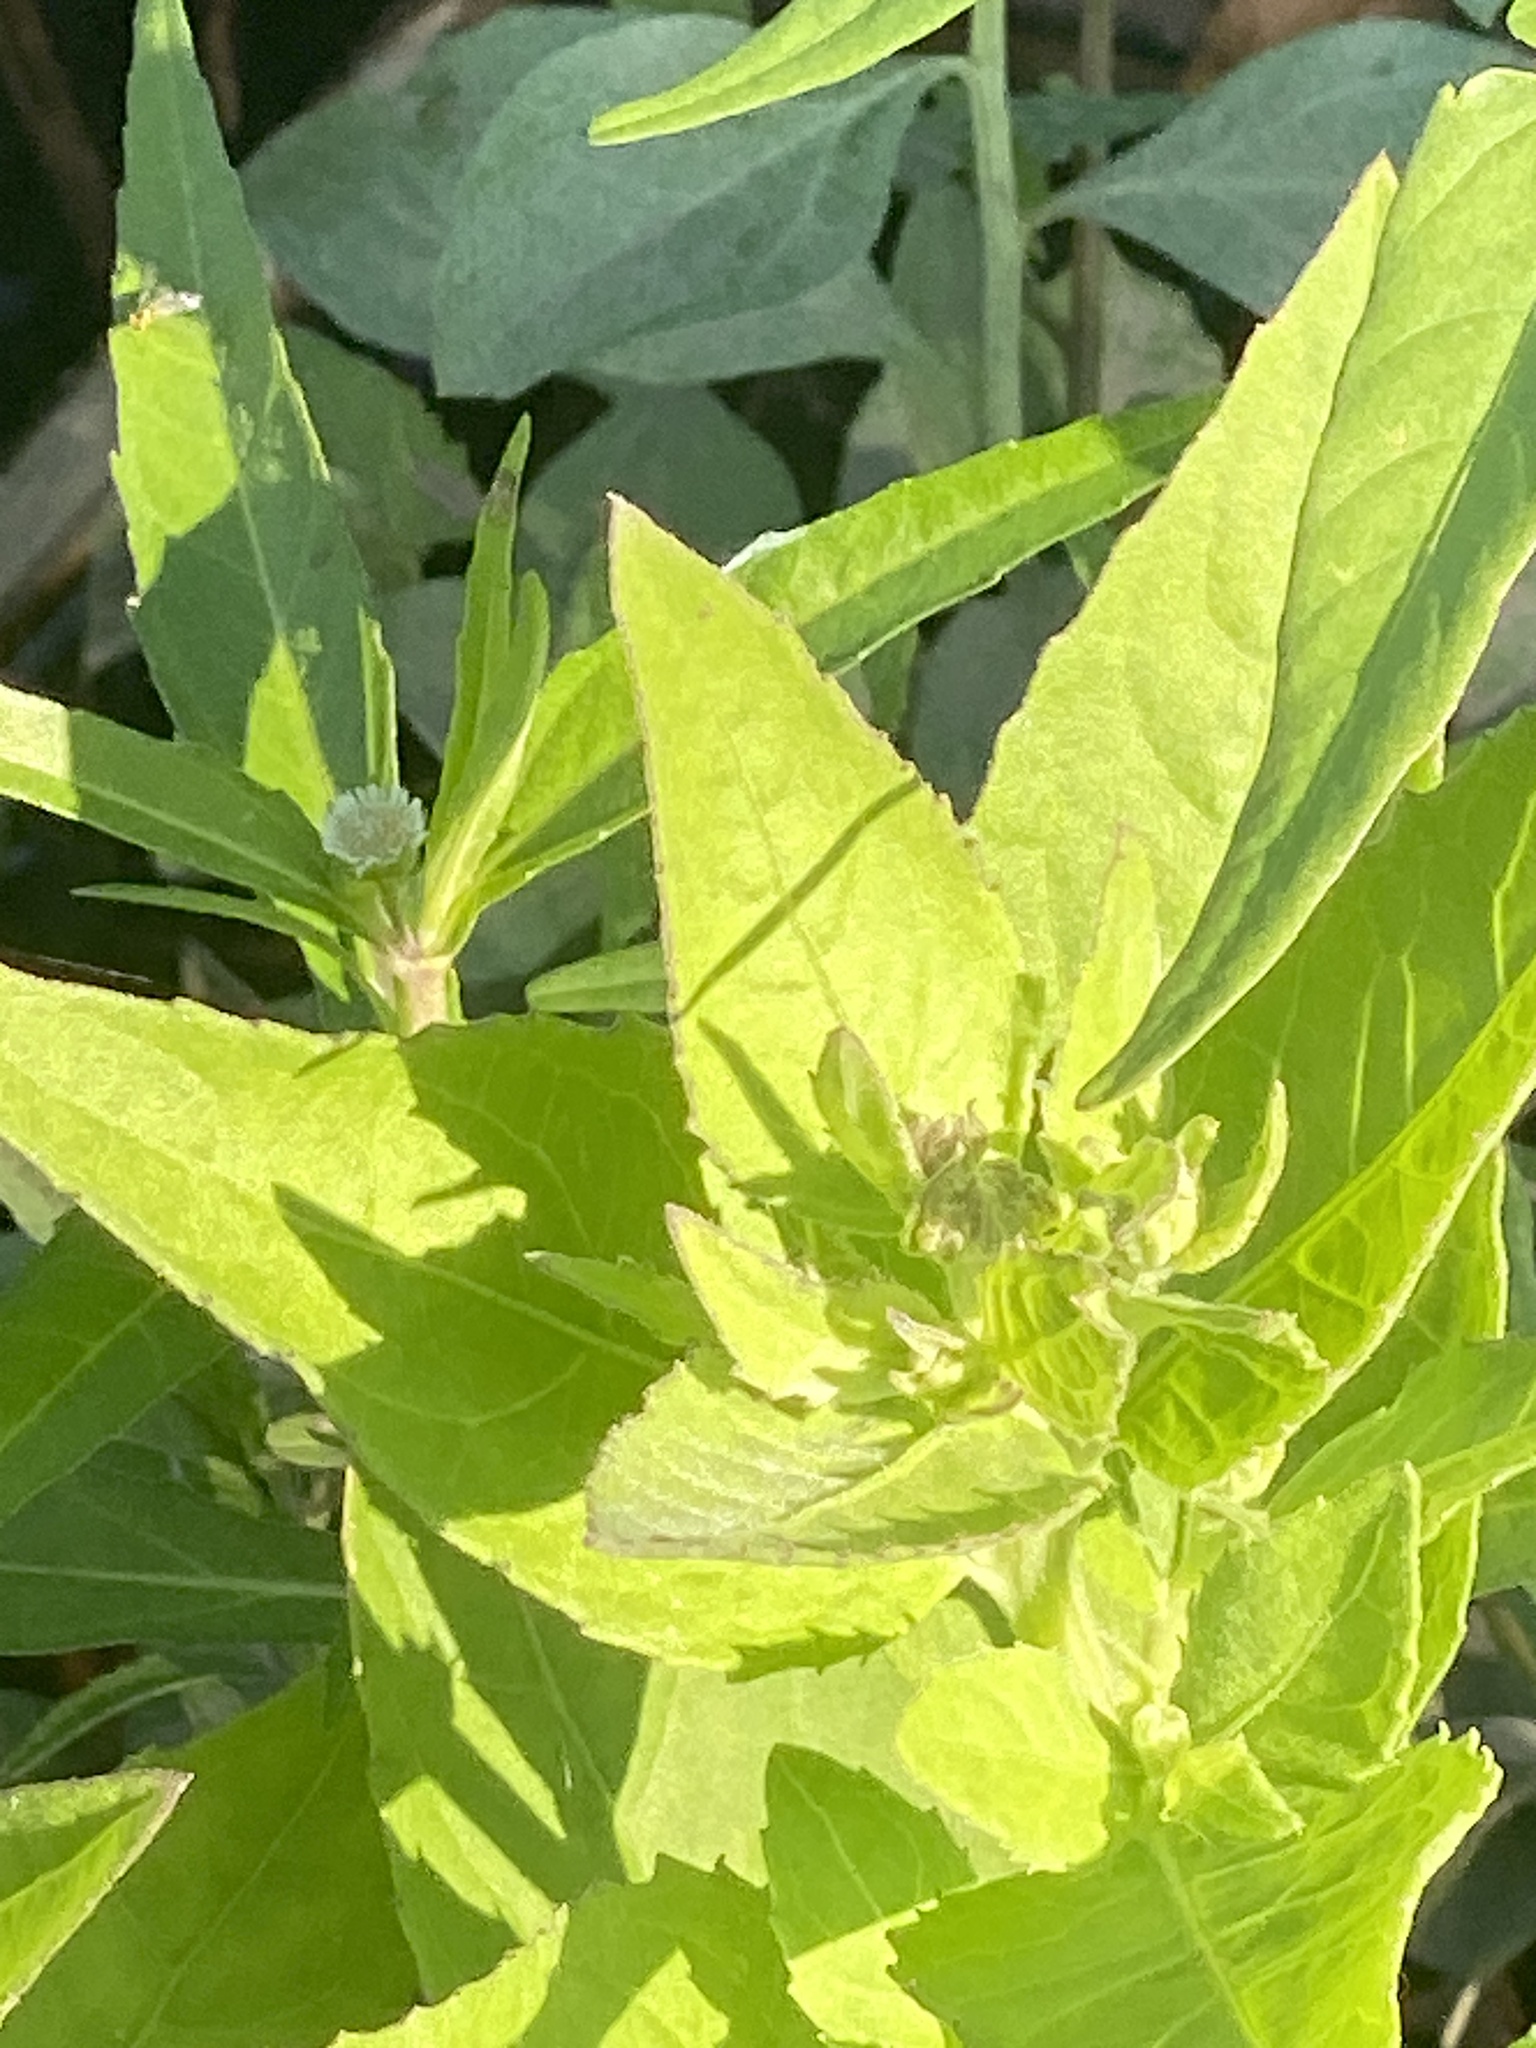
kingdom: Plantae
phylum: Tracheophyta
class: Magnoliopsida
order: Asterales
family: Asteraceae
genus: Pluchea
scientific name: Pluchea odorata
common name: Saltmarsh fleabane
